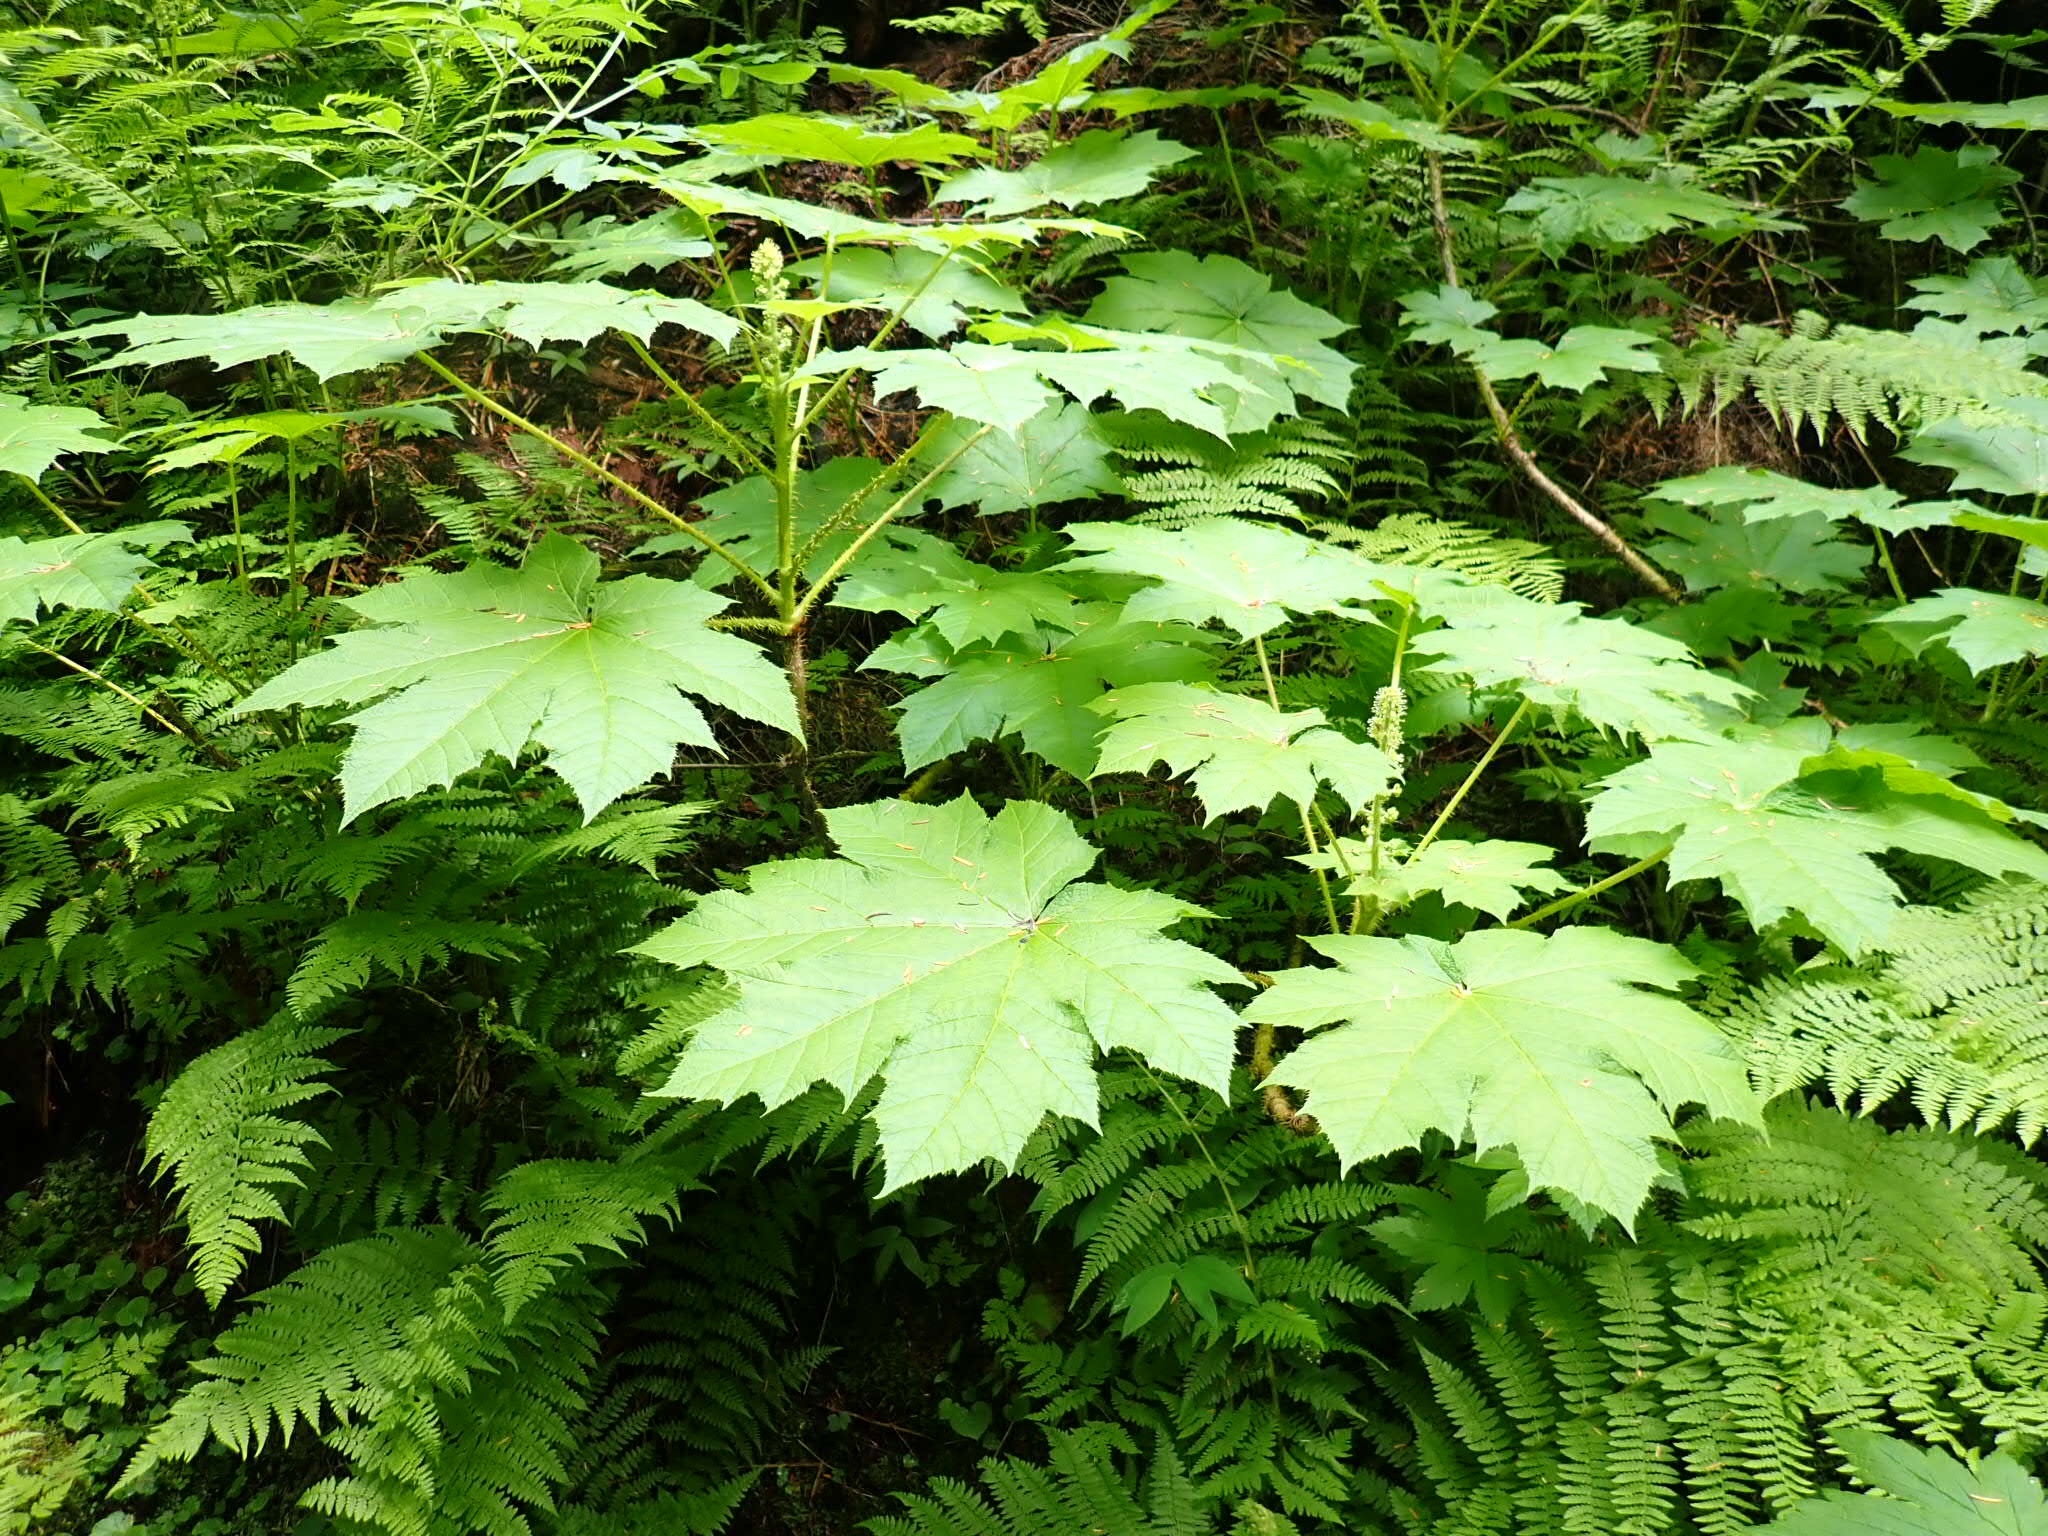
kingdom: Plantae
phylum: Tracheophyta
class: Magnoliopsida
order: Apiales
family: Araliaceae
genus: Oplopanax
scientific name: Oplopanax horridus
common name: Devil's walking-stick
